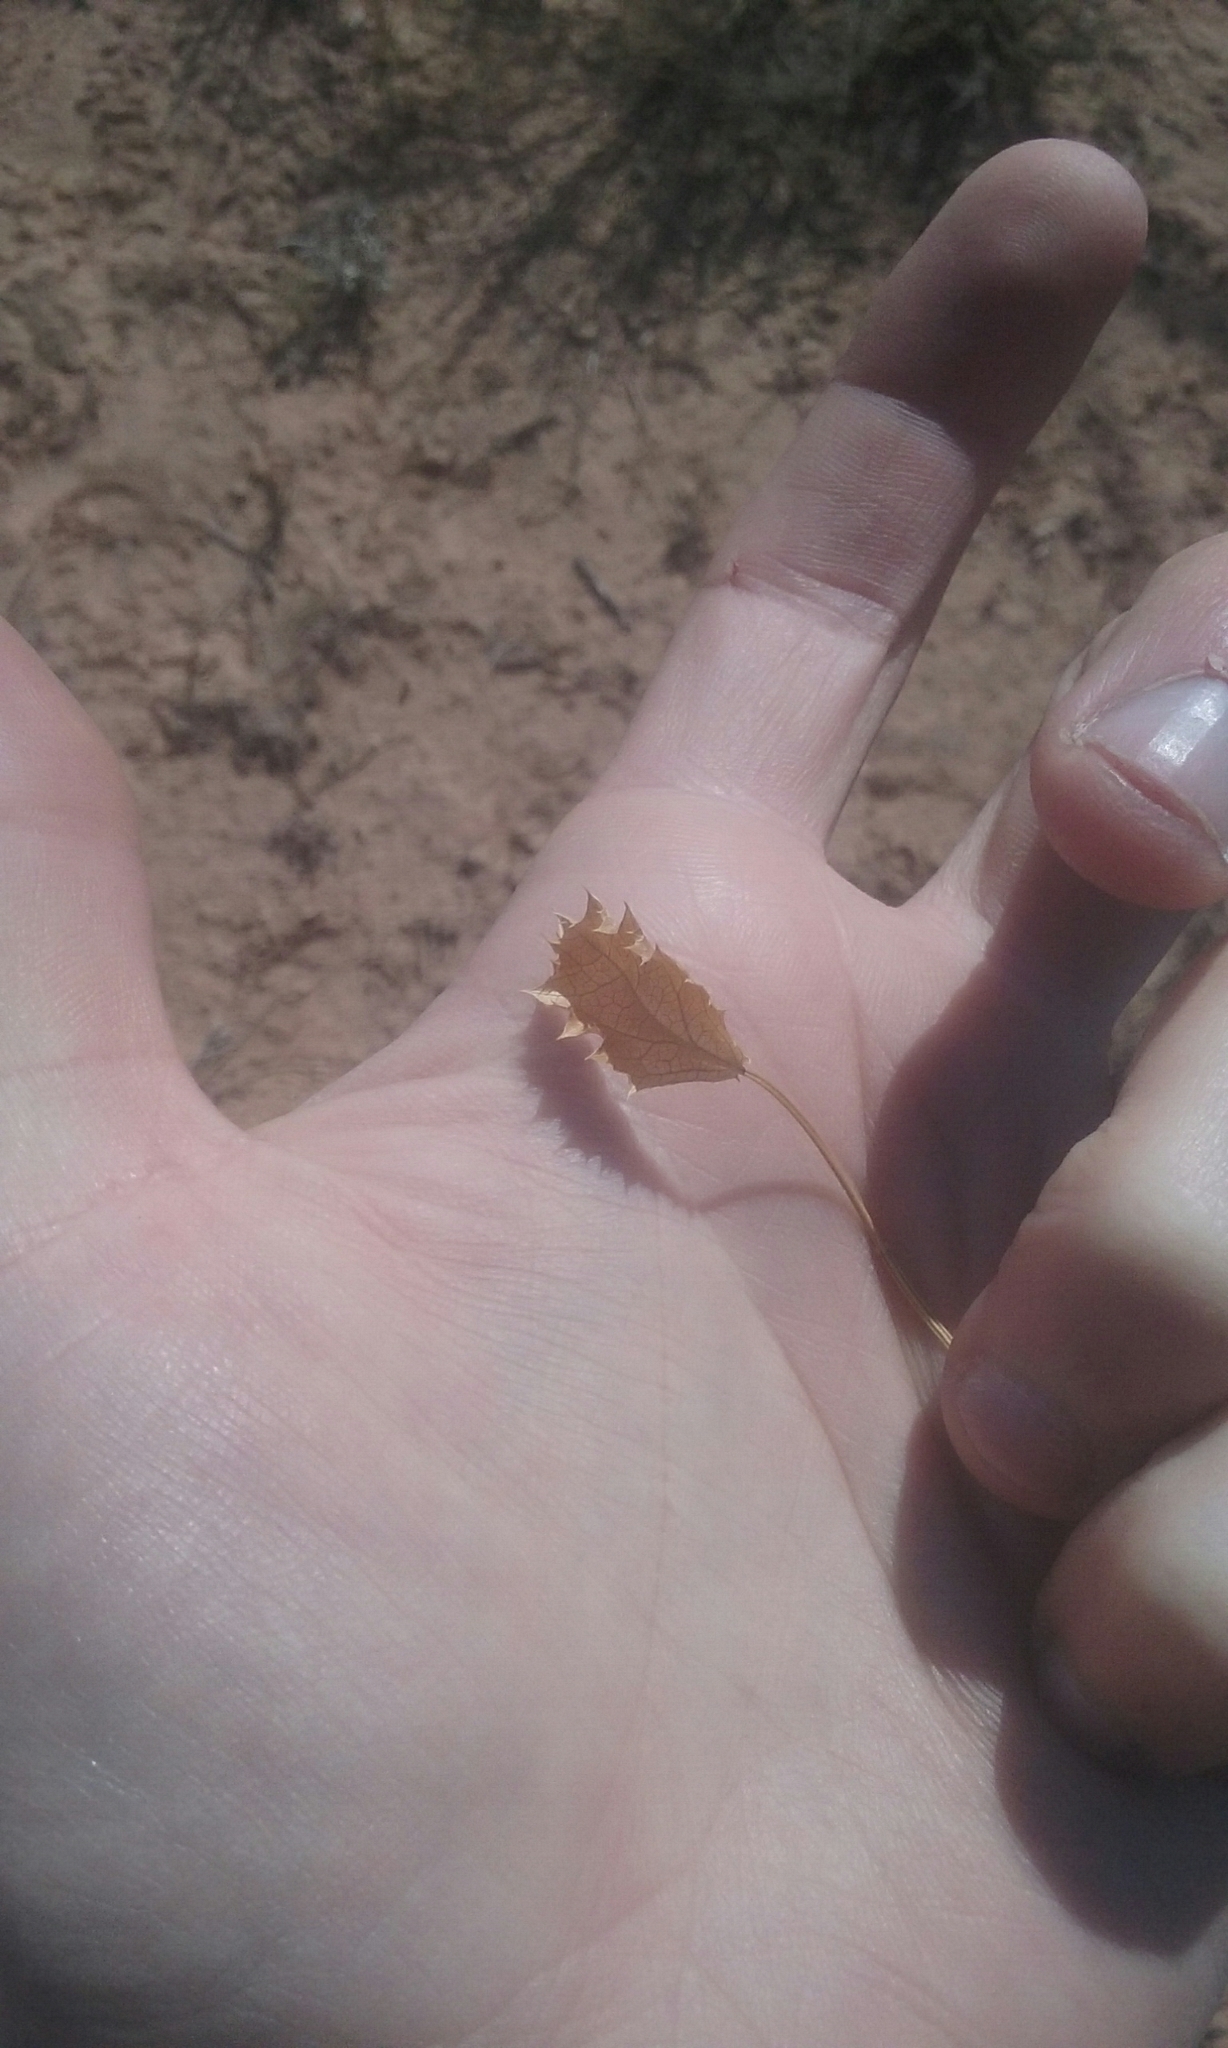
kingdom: Plantae
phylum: Tracheophyta
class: Magnoliopsida
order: Asterales
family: Asteraceae
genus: Acourtia
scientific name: Acourtia nana
